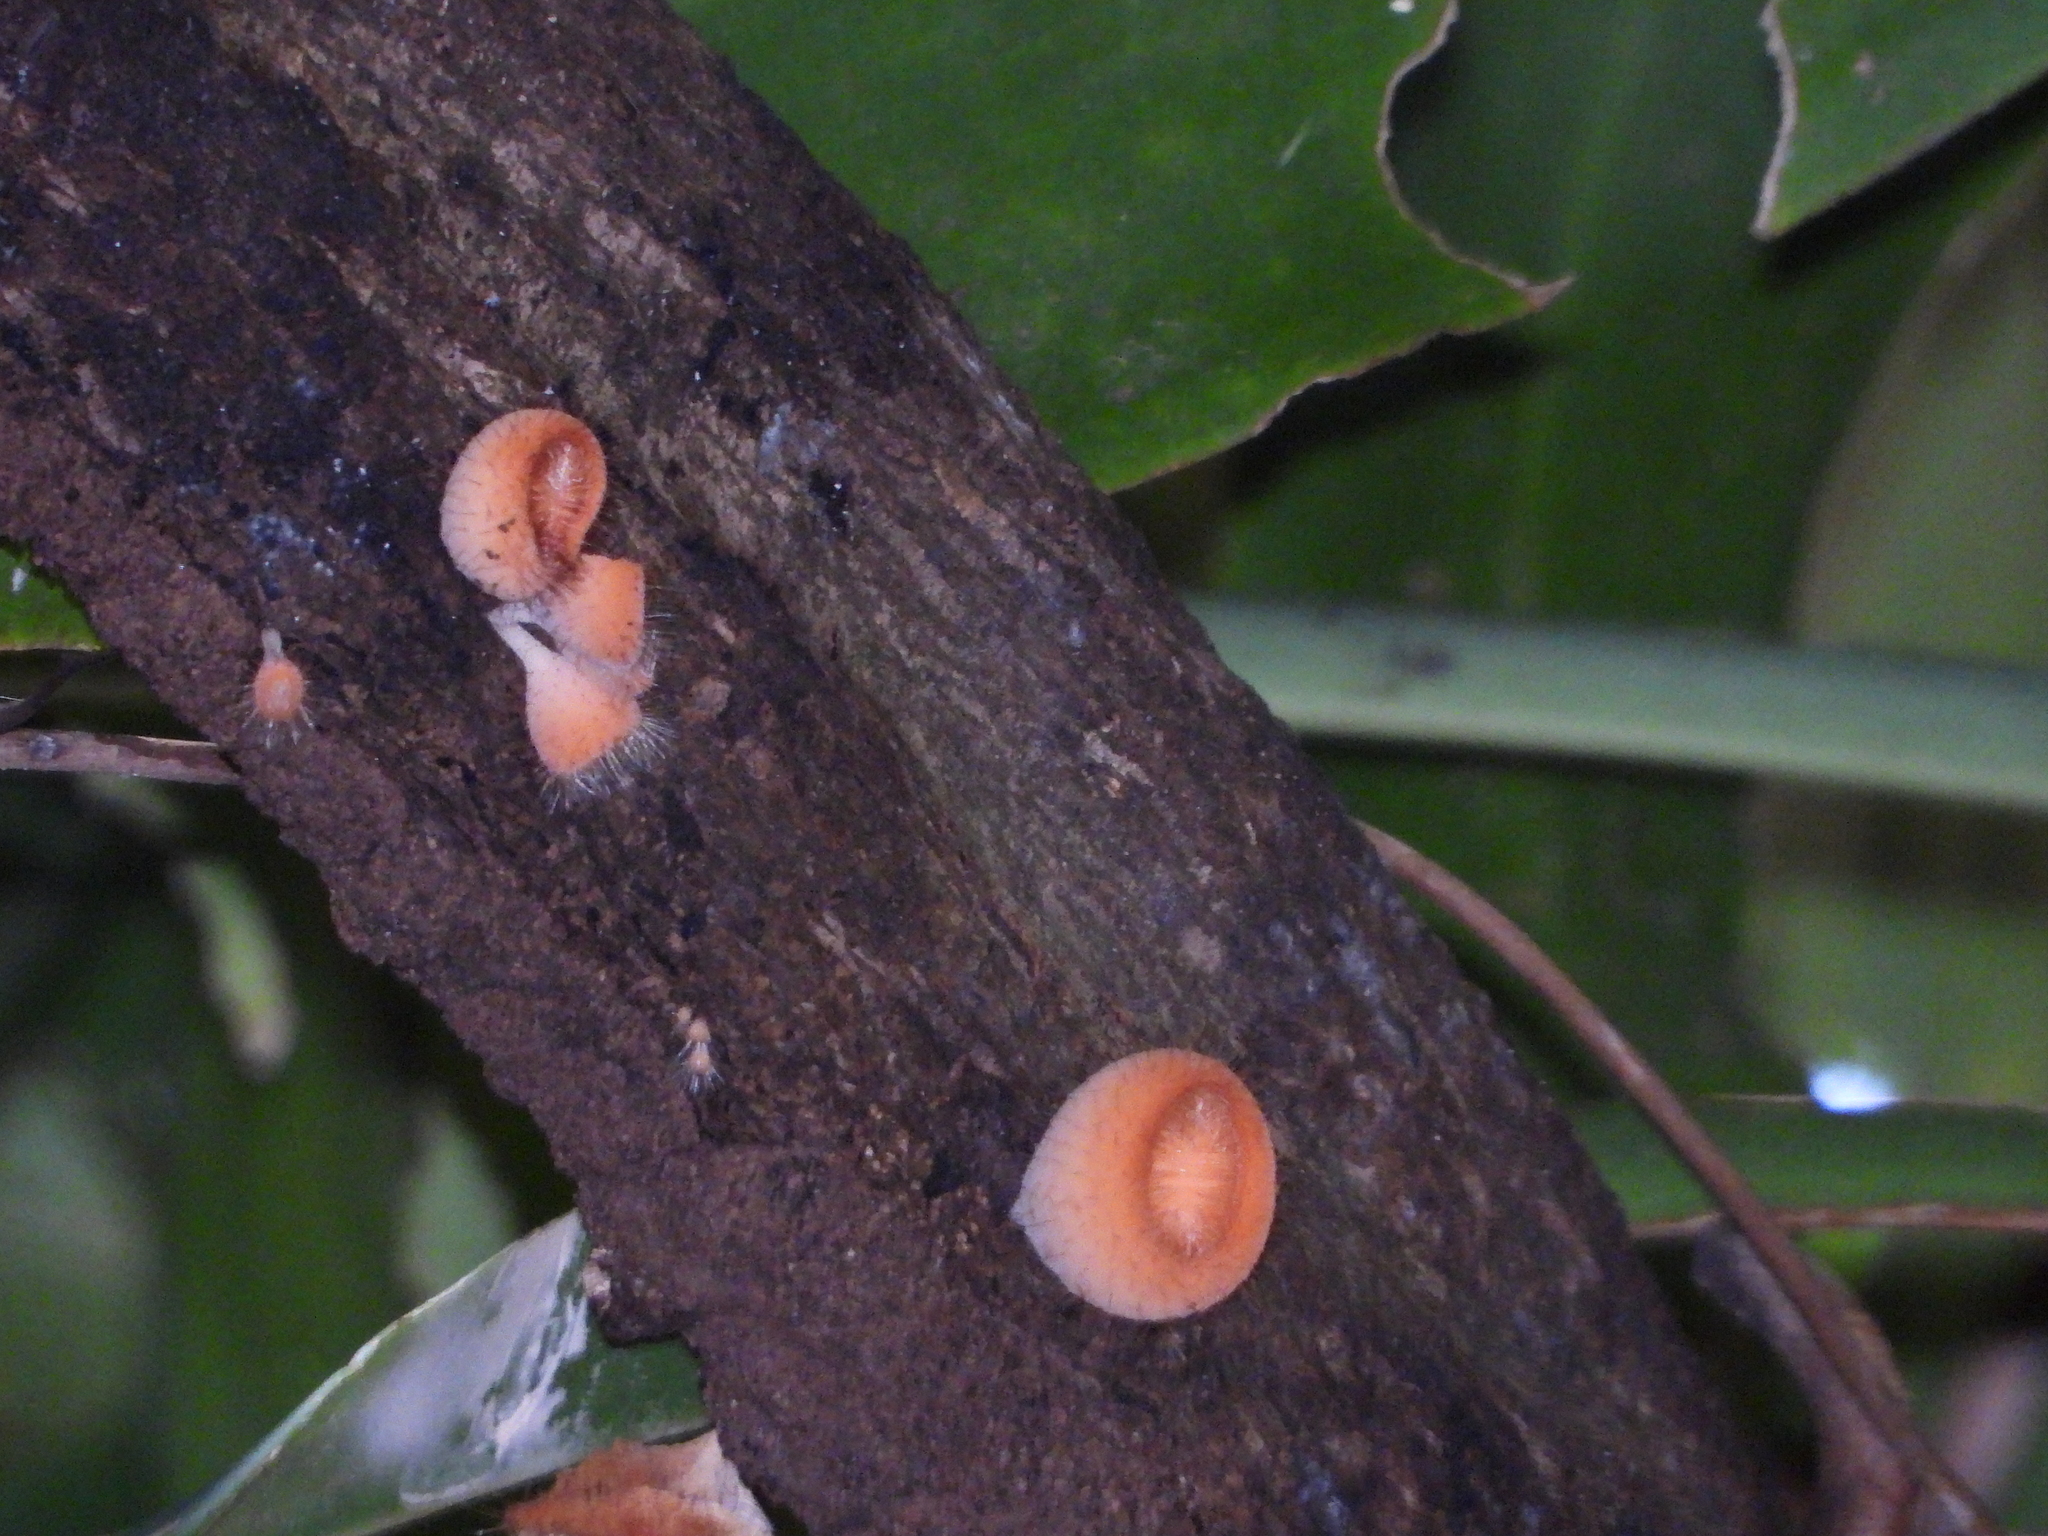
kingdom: Fungi
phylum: Ascomycota
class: Pezizomycetes
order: Pezizales
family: Sarcoscyphaceae
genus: Cookeina
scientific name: Cookeina tricholoma
